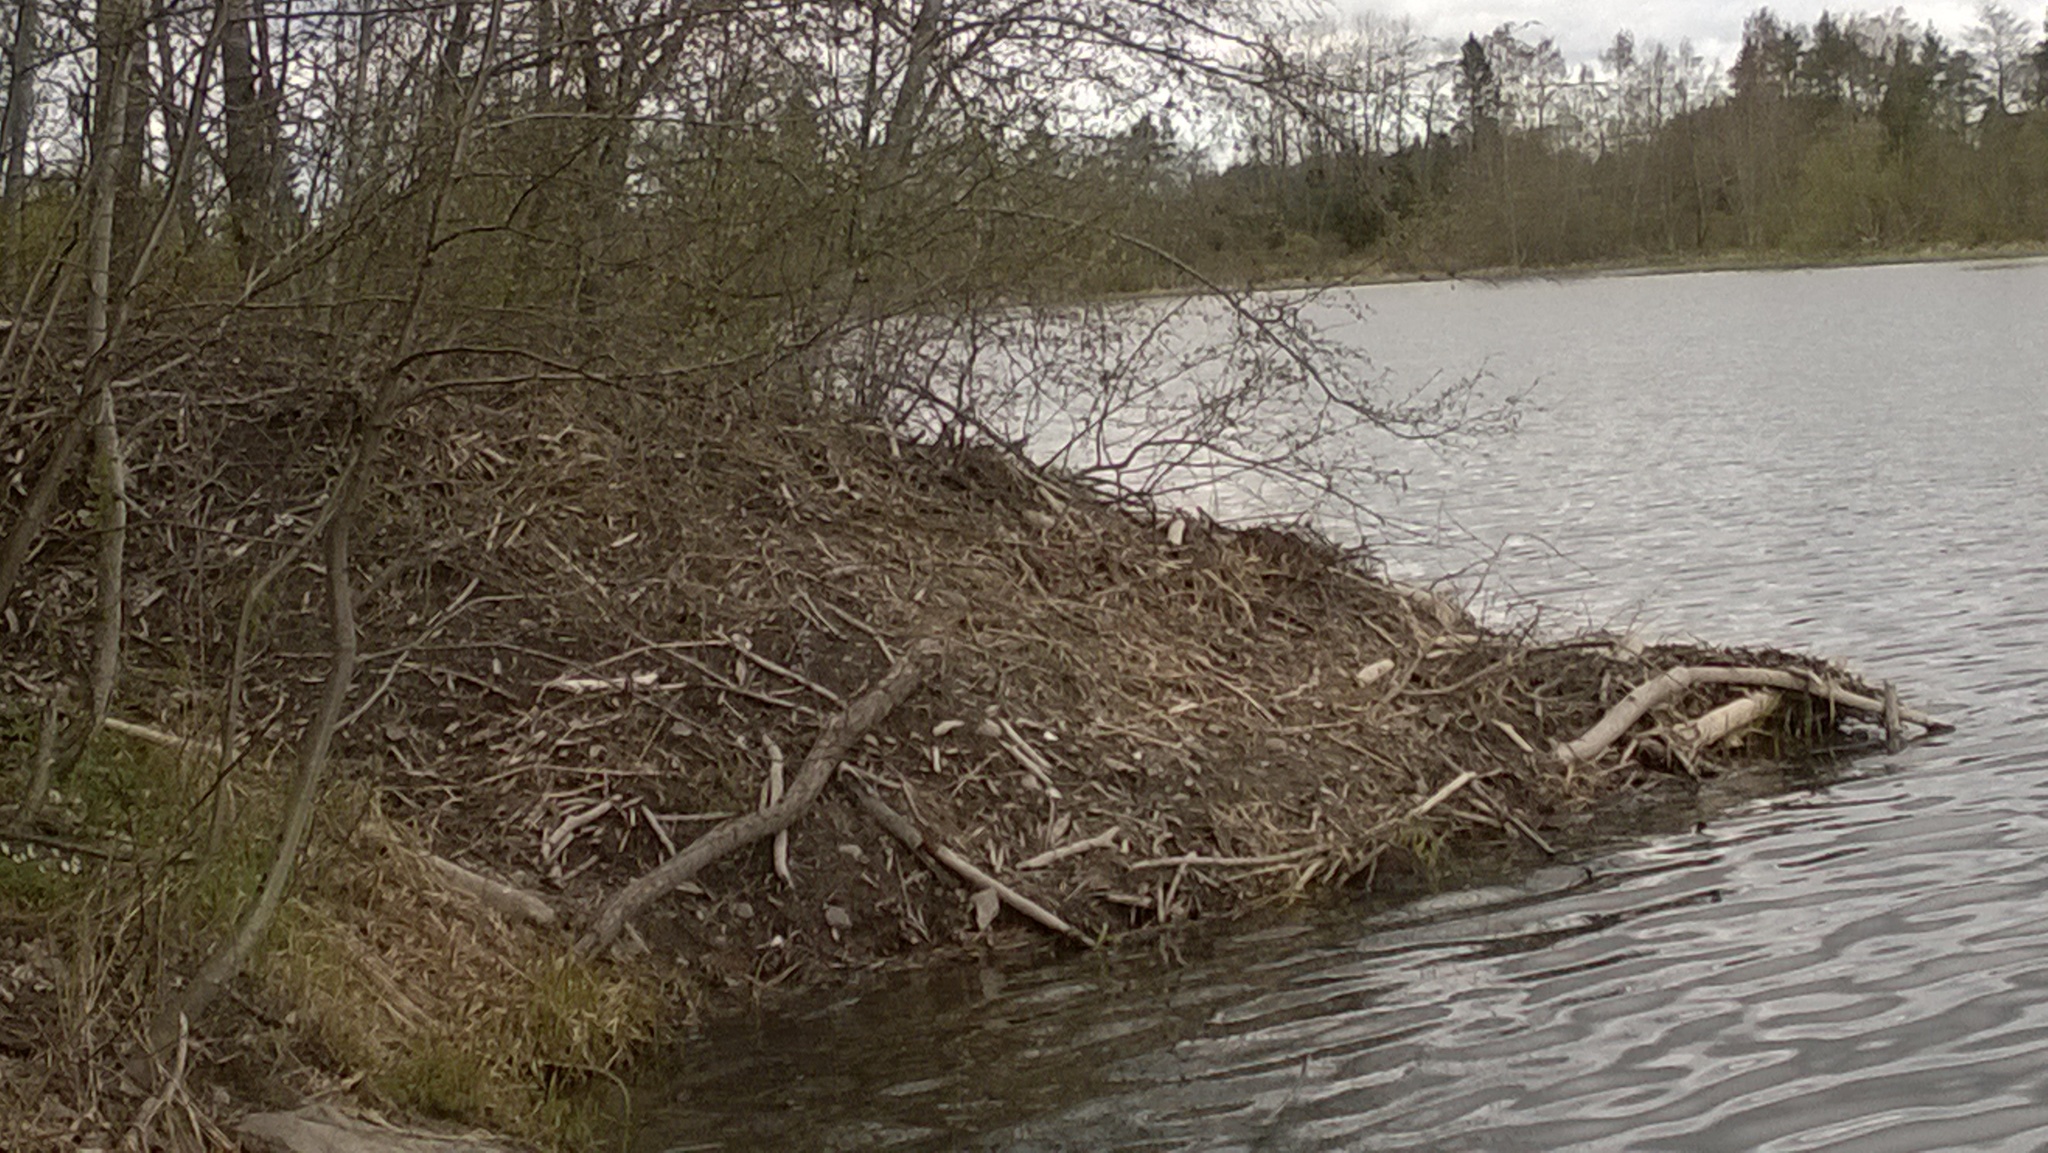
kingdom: Animalia
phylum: Chordata
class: Mammalia
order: Rodentia
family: Castoridae
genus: Castor
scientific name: Castor fiber
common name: Eurasian beaver
